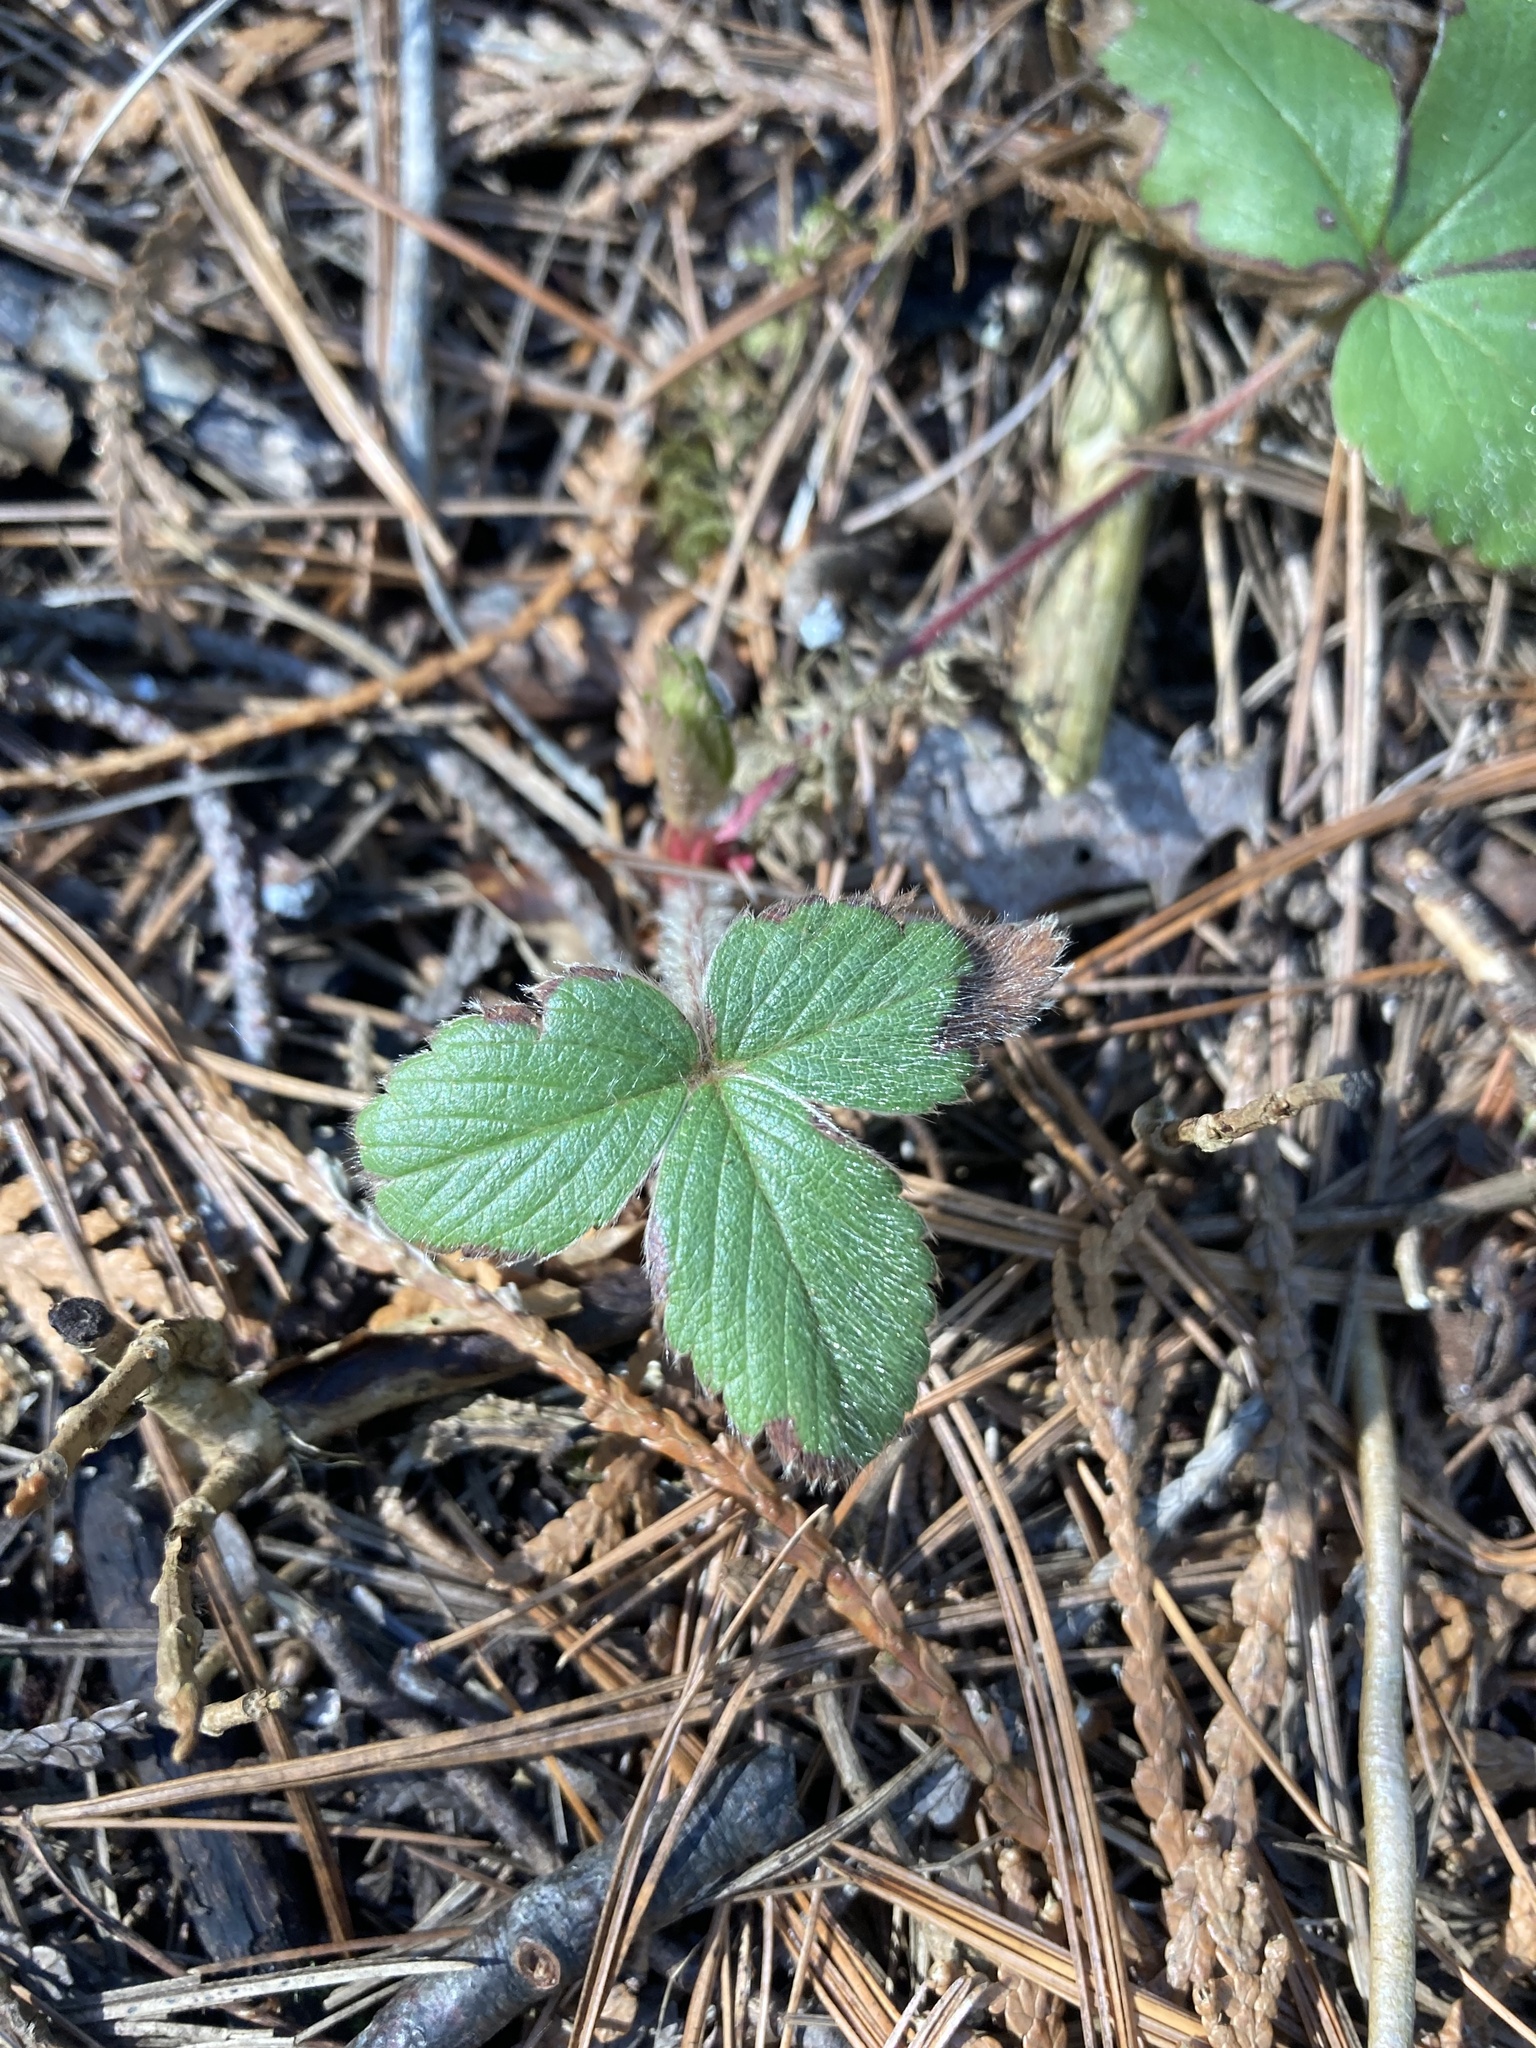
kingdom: Plantae
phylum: Tracheophyta
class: Magnoliopsida
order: Rosales
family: Rosaceae
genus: Fragaria
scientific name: Fragaria virginiana
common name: Thickleaved wild strawberry
